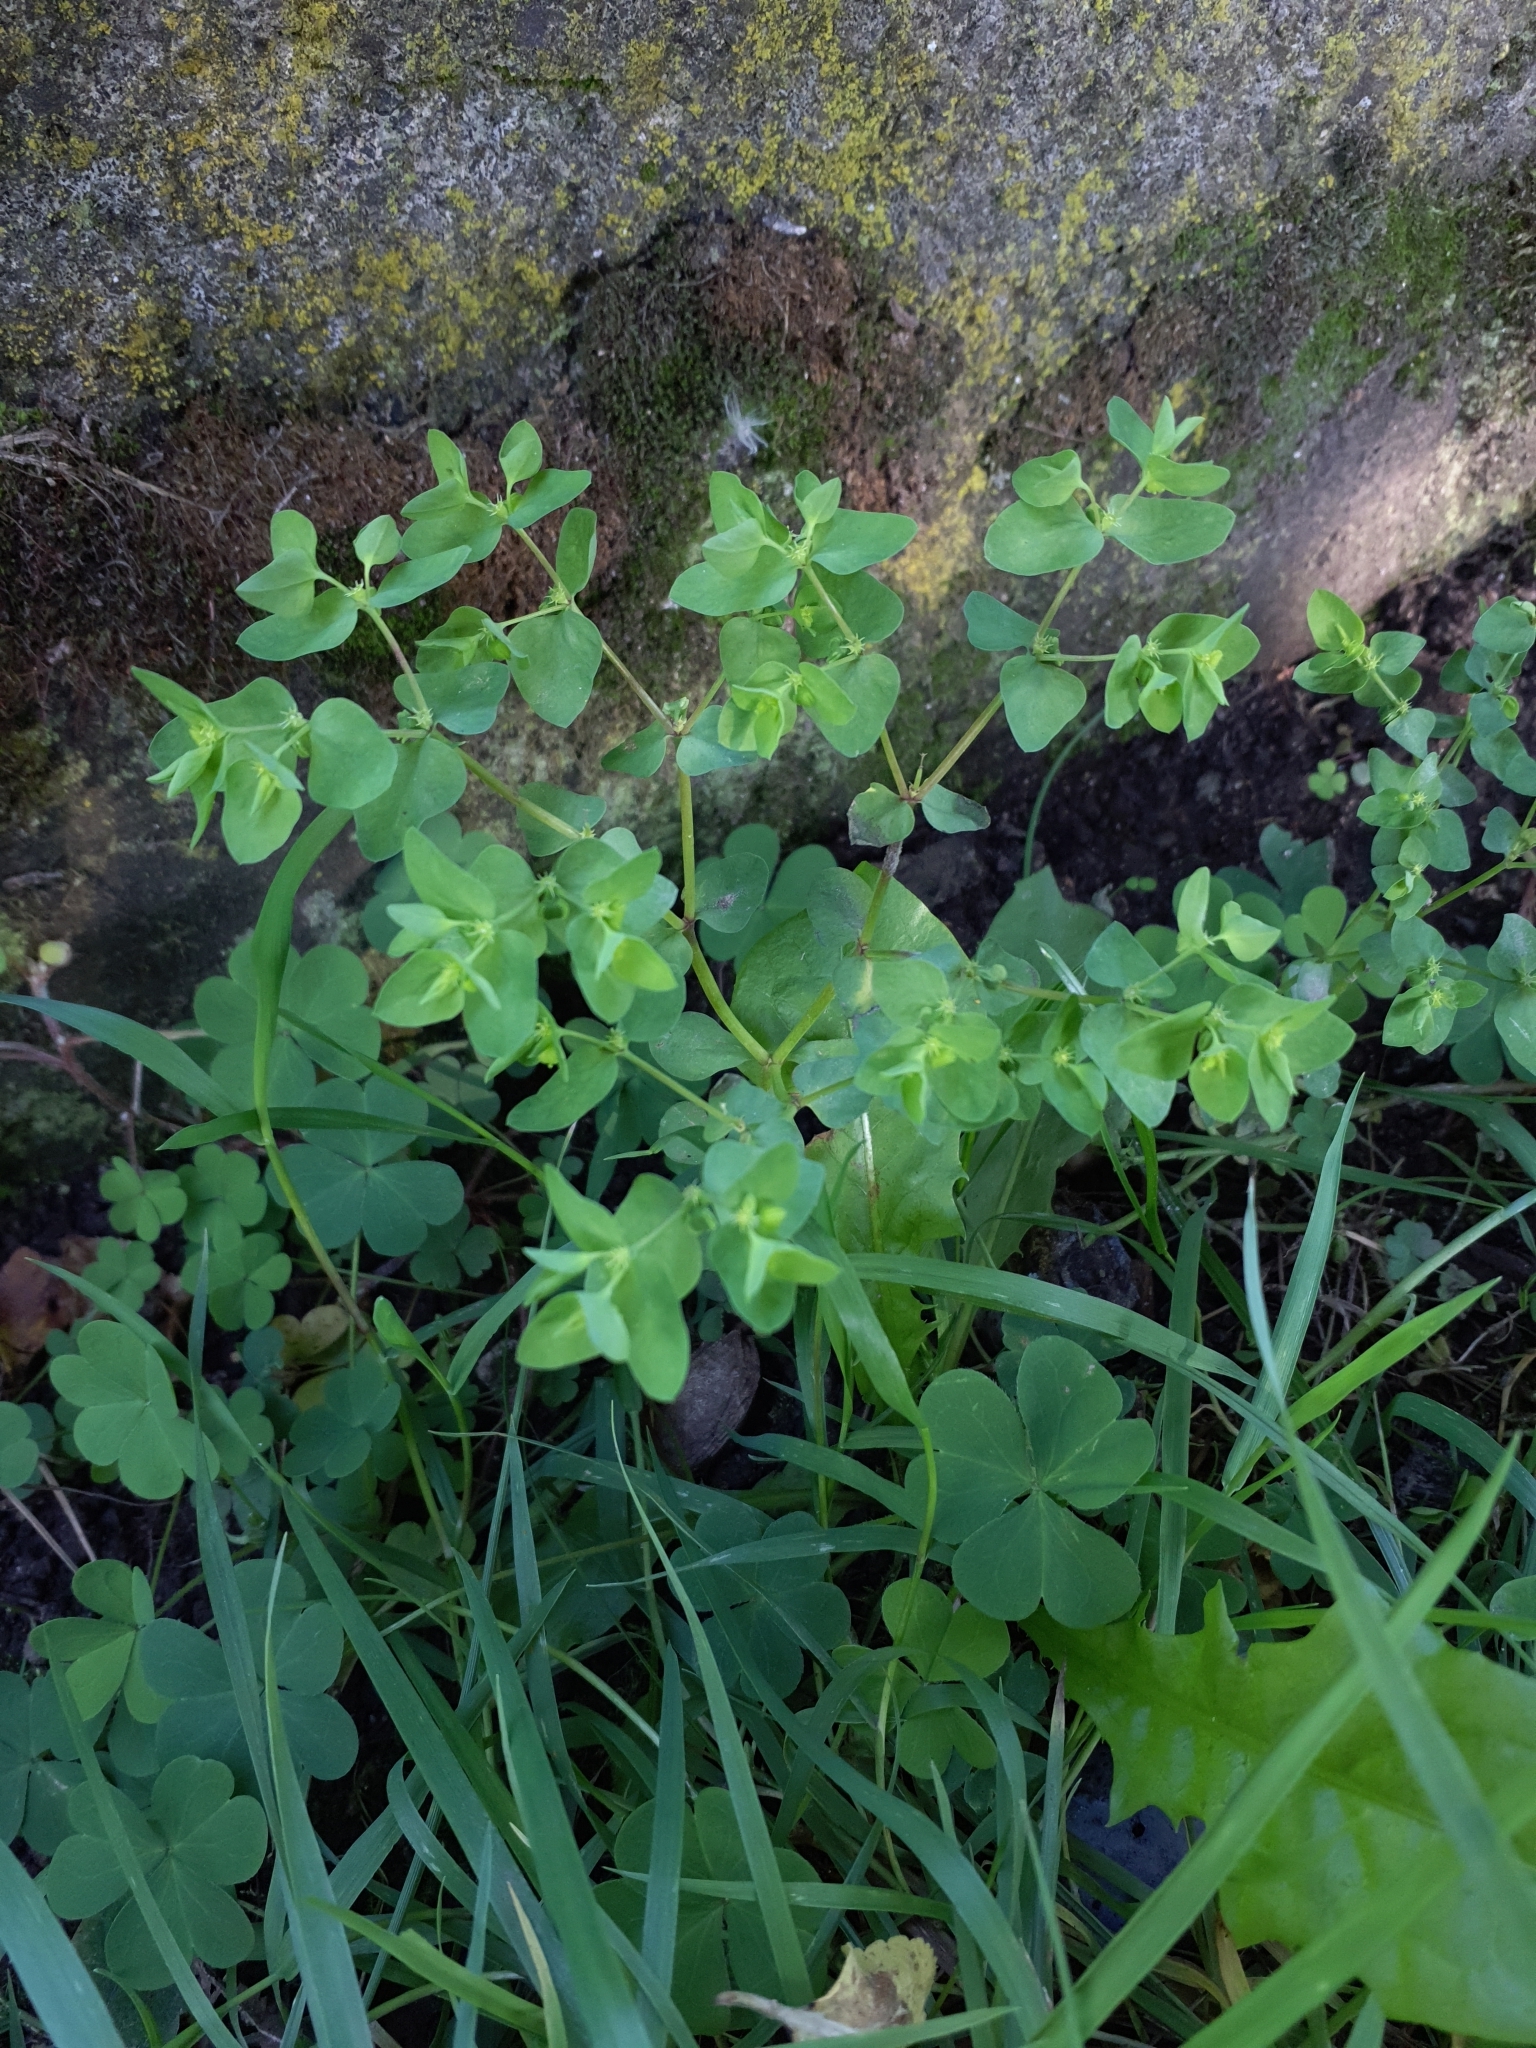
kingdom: Plantae
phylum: Tracheophyta
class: Magnoliopsida
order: Malpighiales
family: Euphorbiaceae
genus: Euphorbia
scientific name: Euphorbia peplus
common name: Petty spurge
